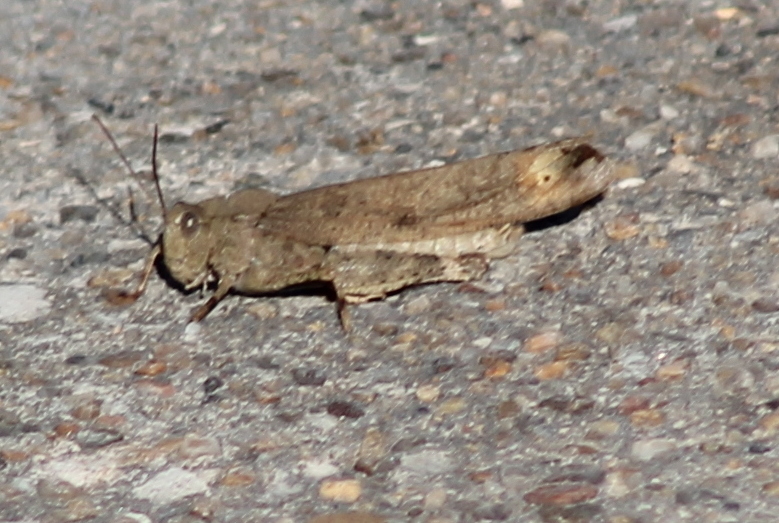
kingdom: Animalia
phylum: Arthropoda
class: Insecta
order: Orthoptera
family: Acrididae
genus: Dissosteira
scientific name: Dissosteira carolina
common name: Carolina grasshopper
